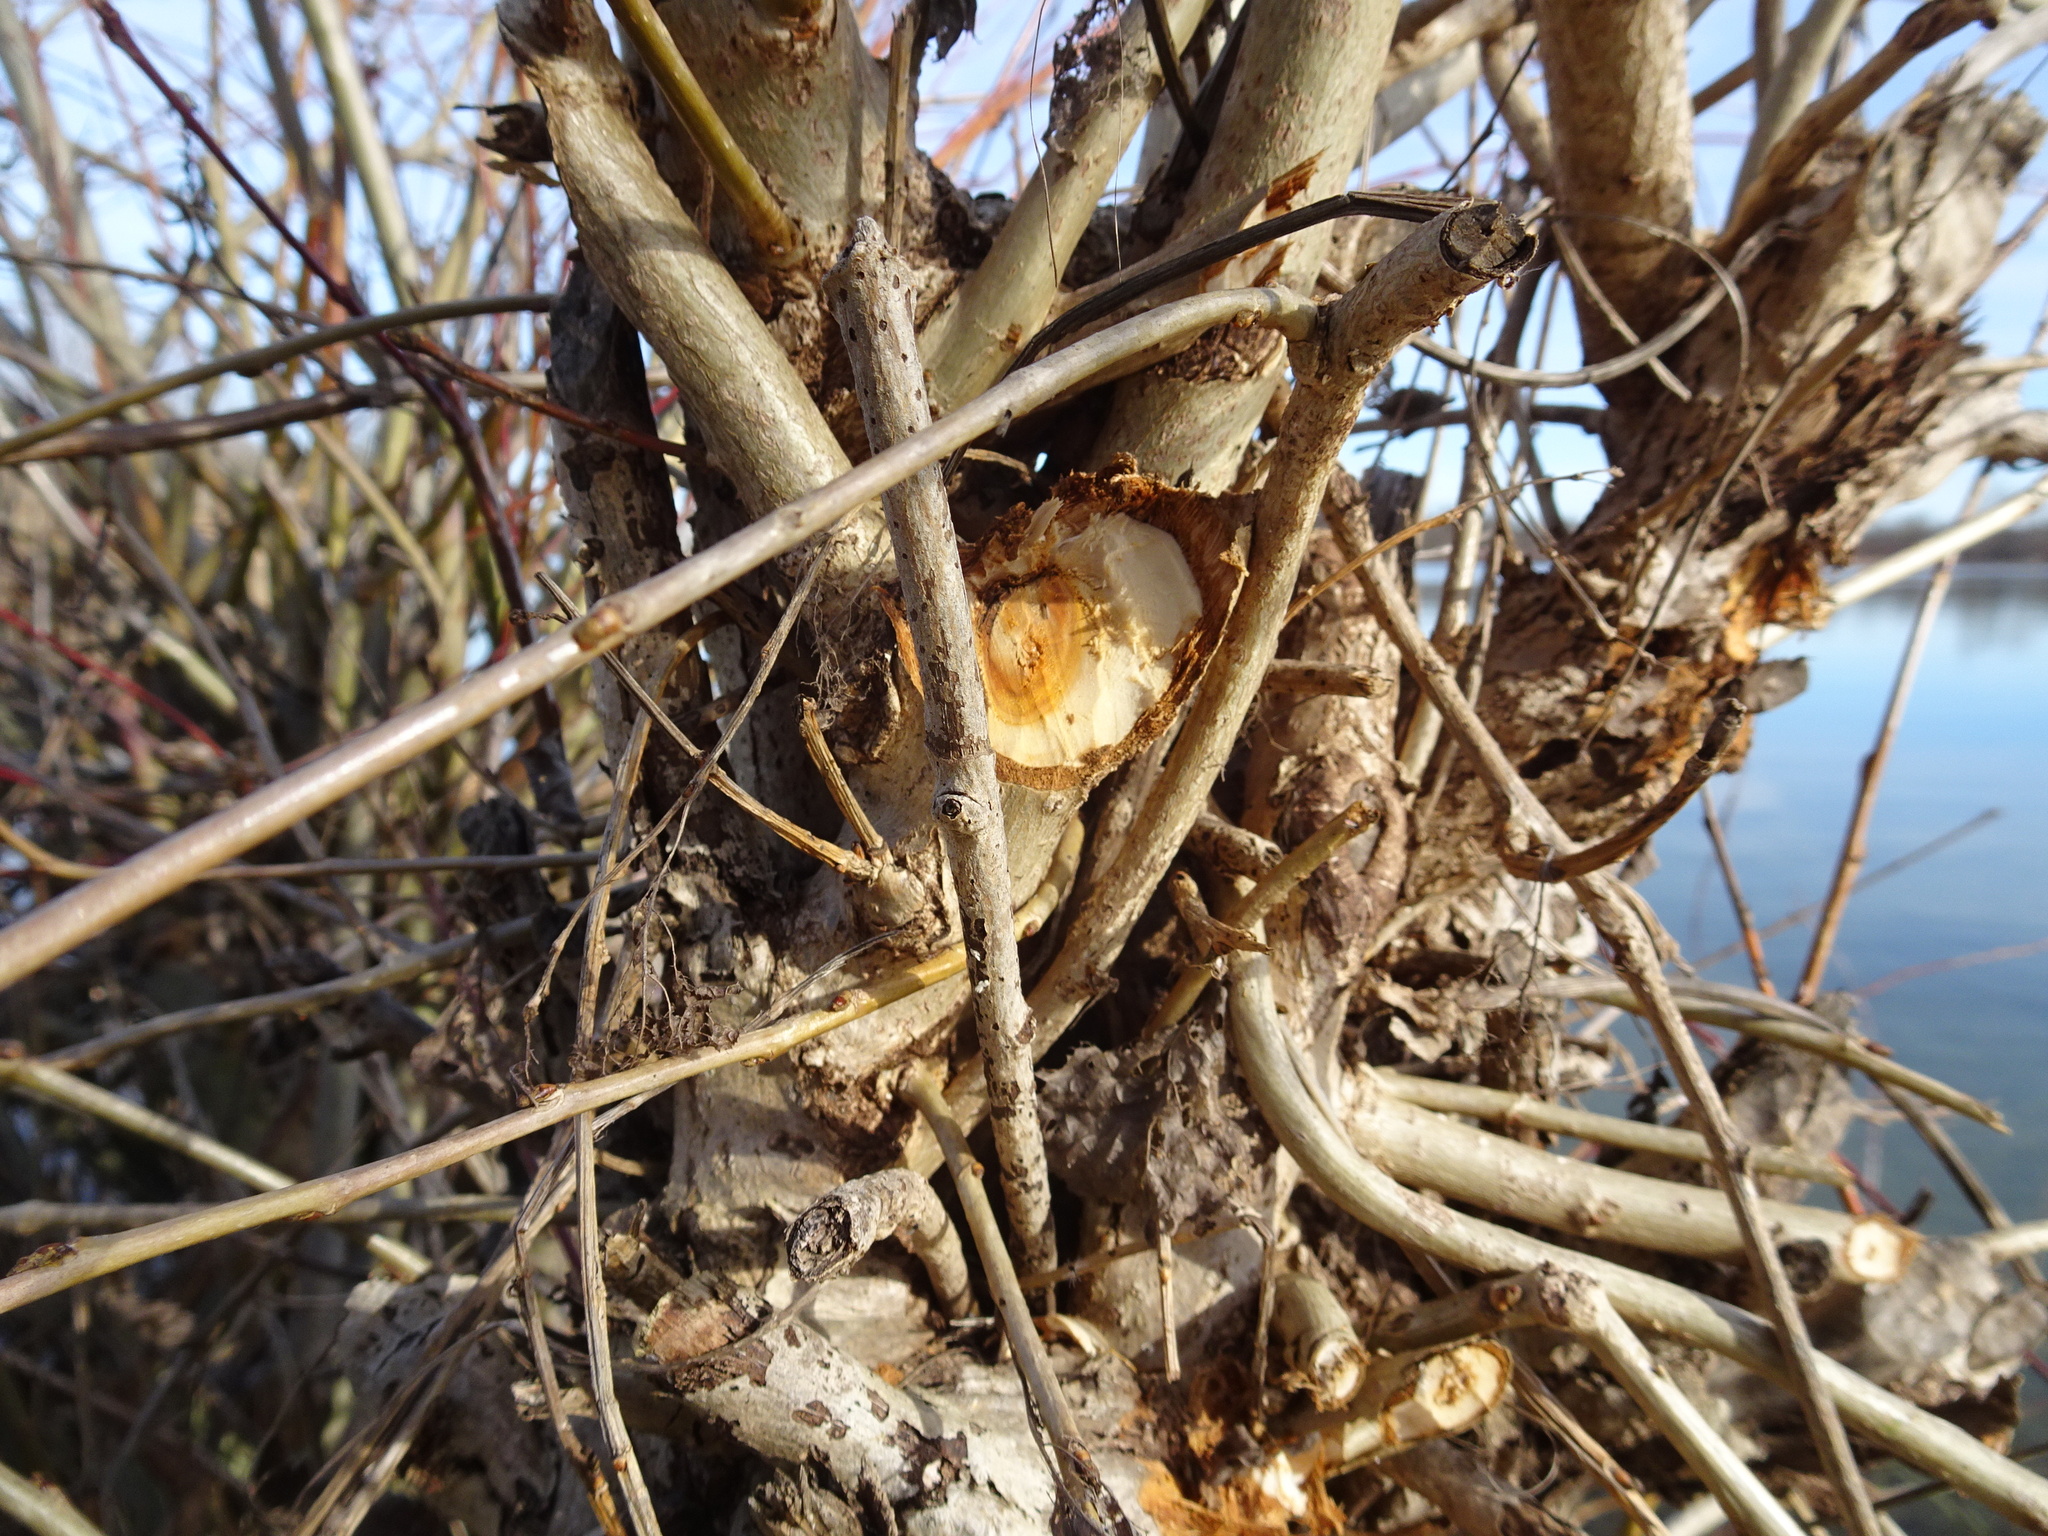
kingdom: Animalia
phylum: Chordata
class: Mammalia
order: Rodentia
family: Castoridae
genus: Castor
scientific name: Castor fiber
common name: Eurasian beaver
